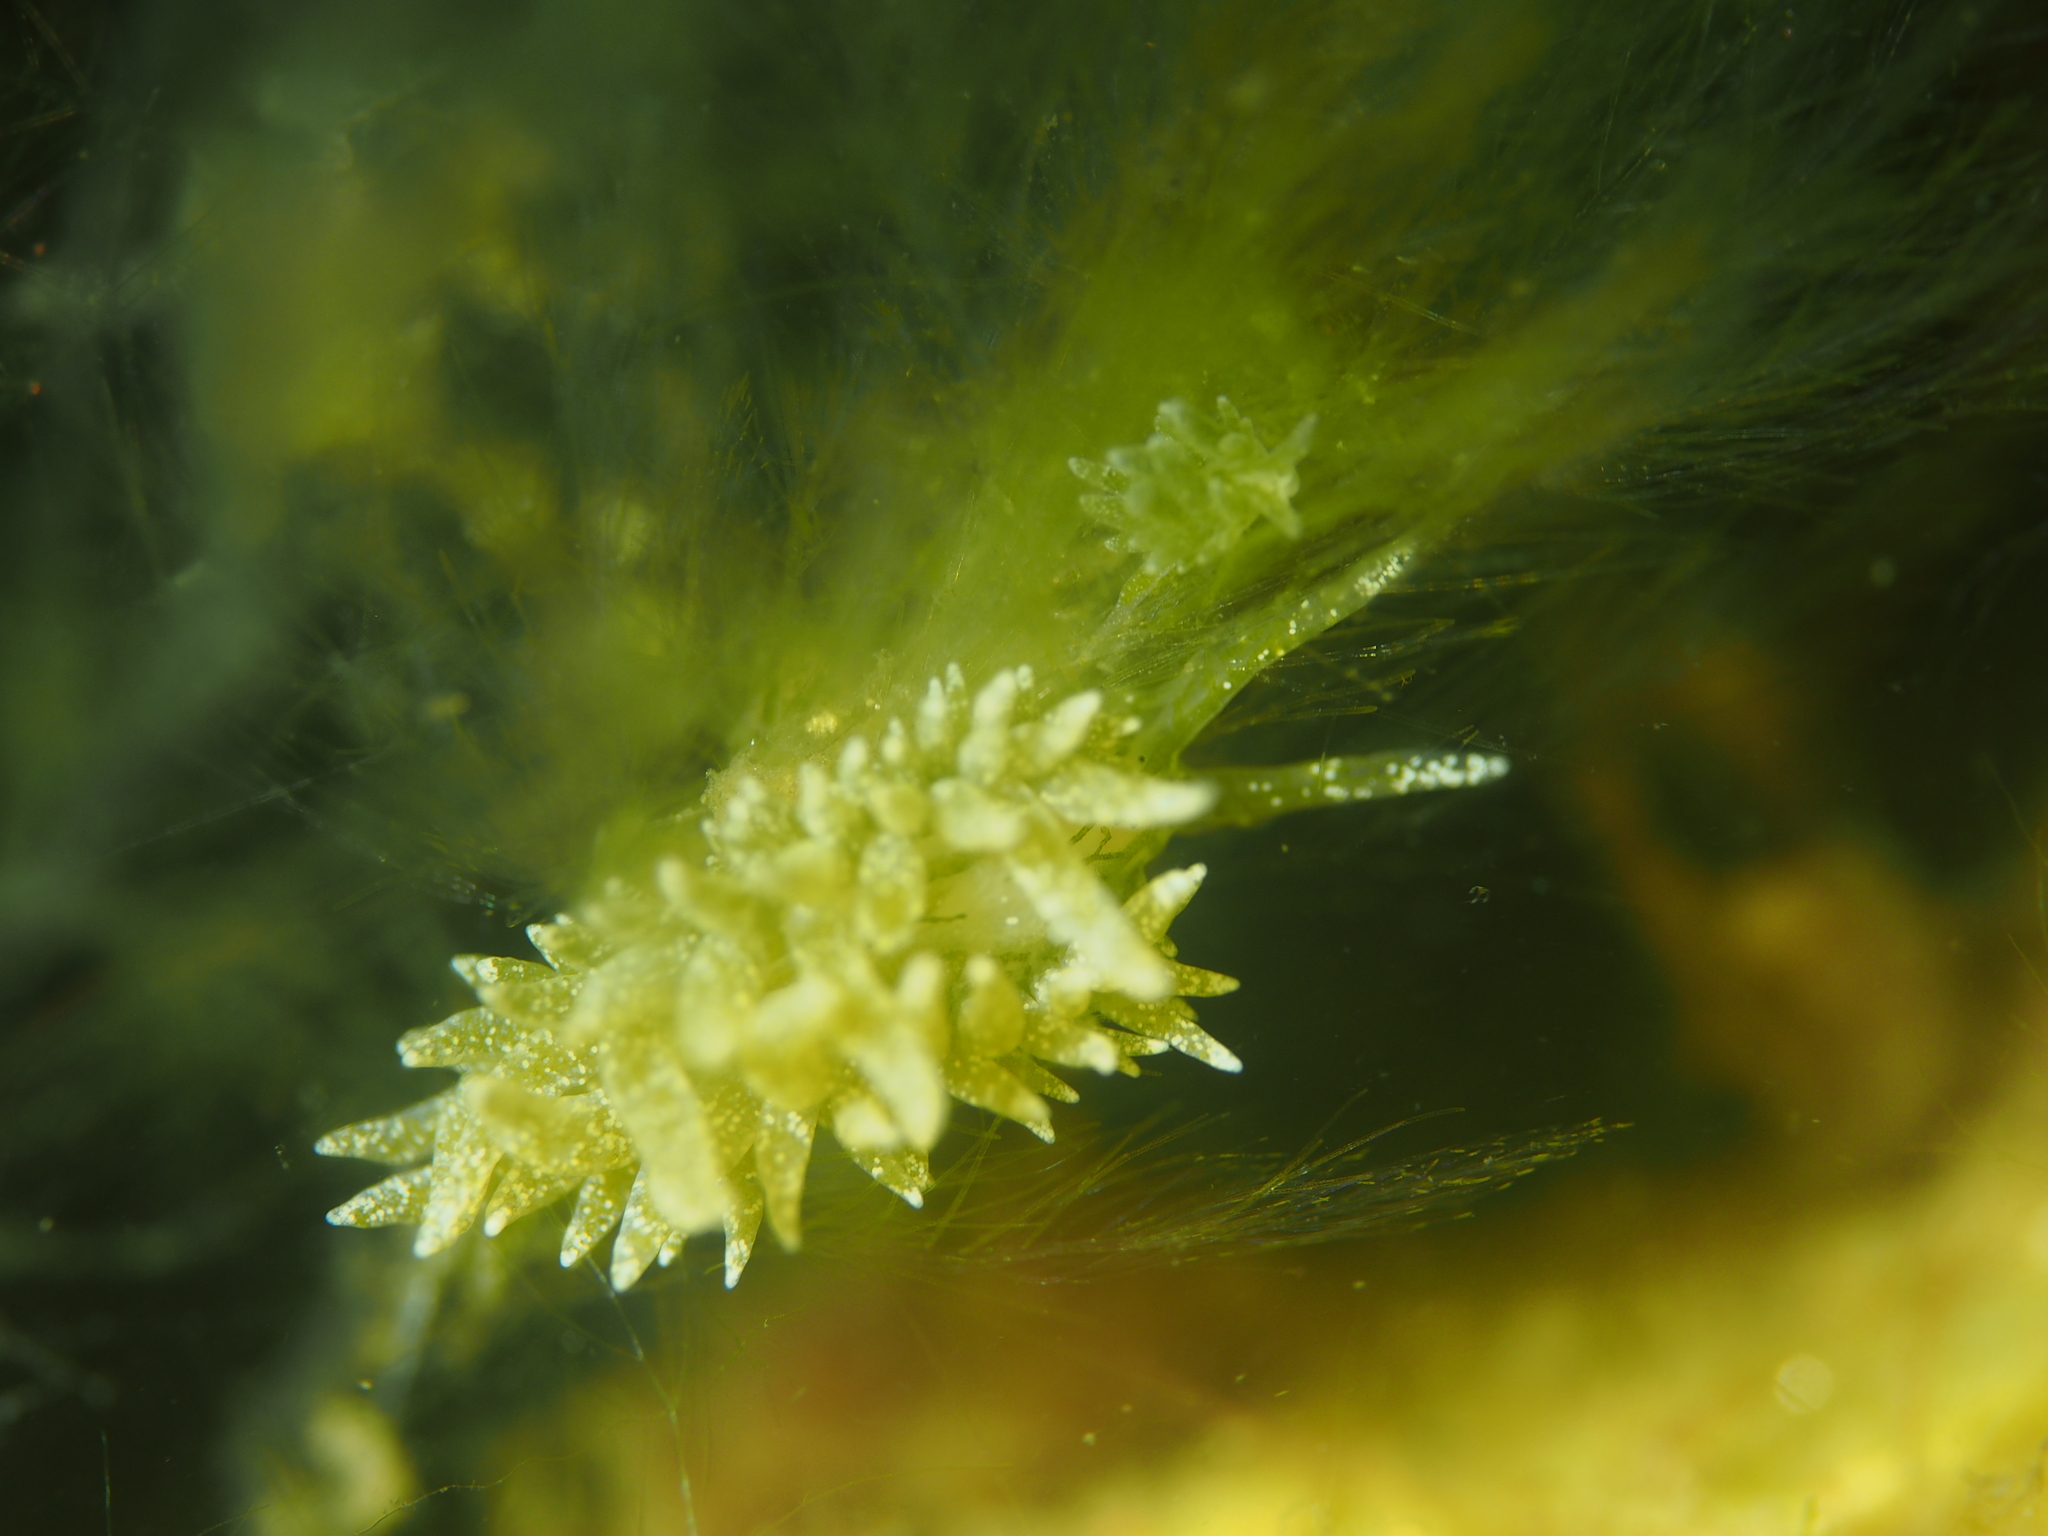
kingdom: Animalia
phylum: Mollusca
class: Gastropoda
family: Limapontiidae
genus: Placida
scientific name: Placida dendritica
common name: Dendritic nudibranch
